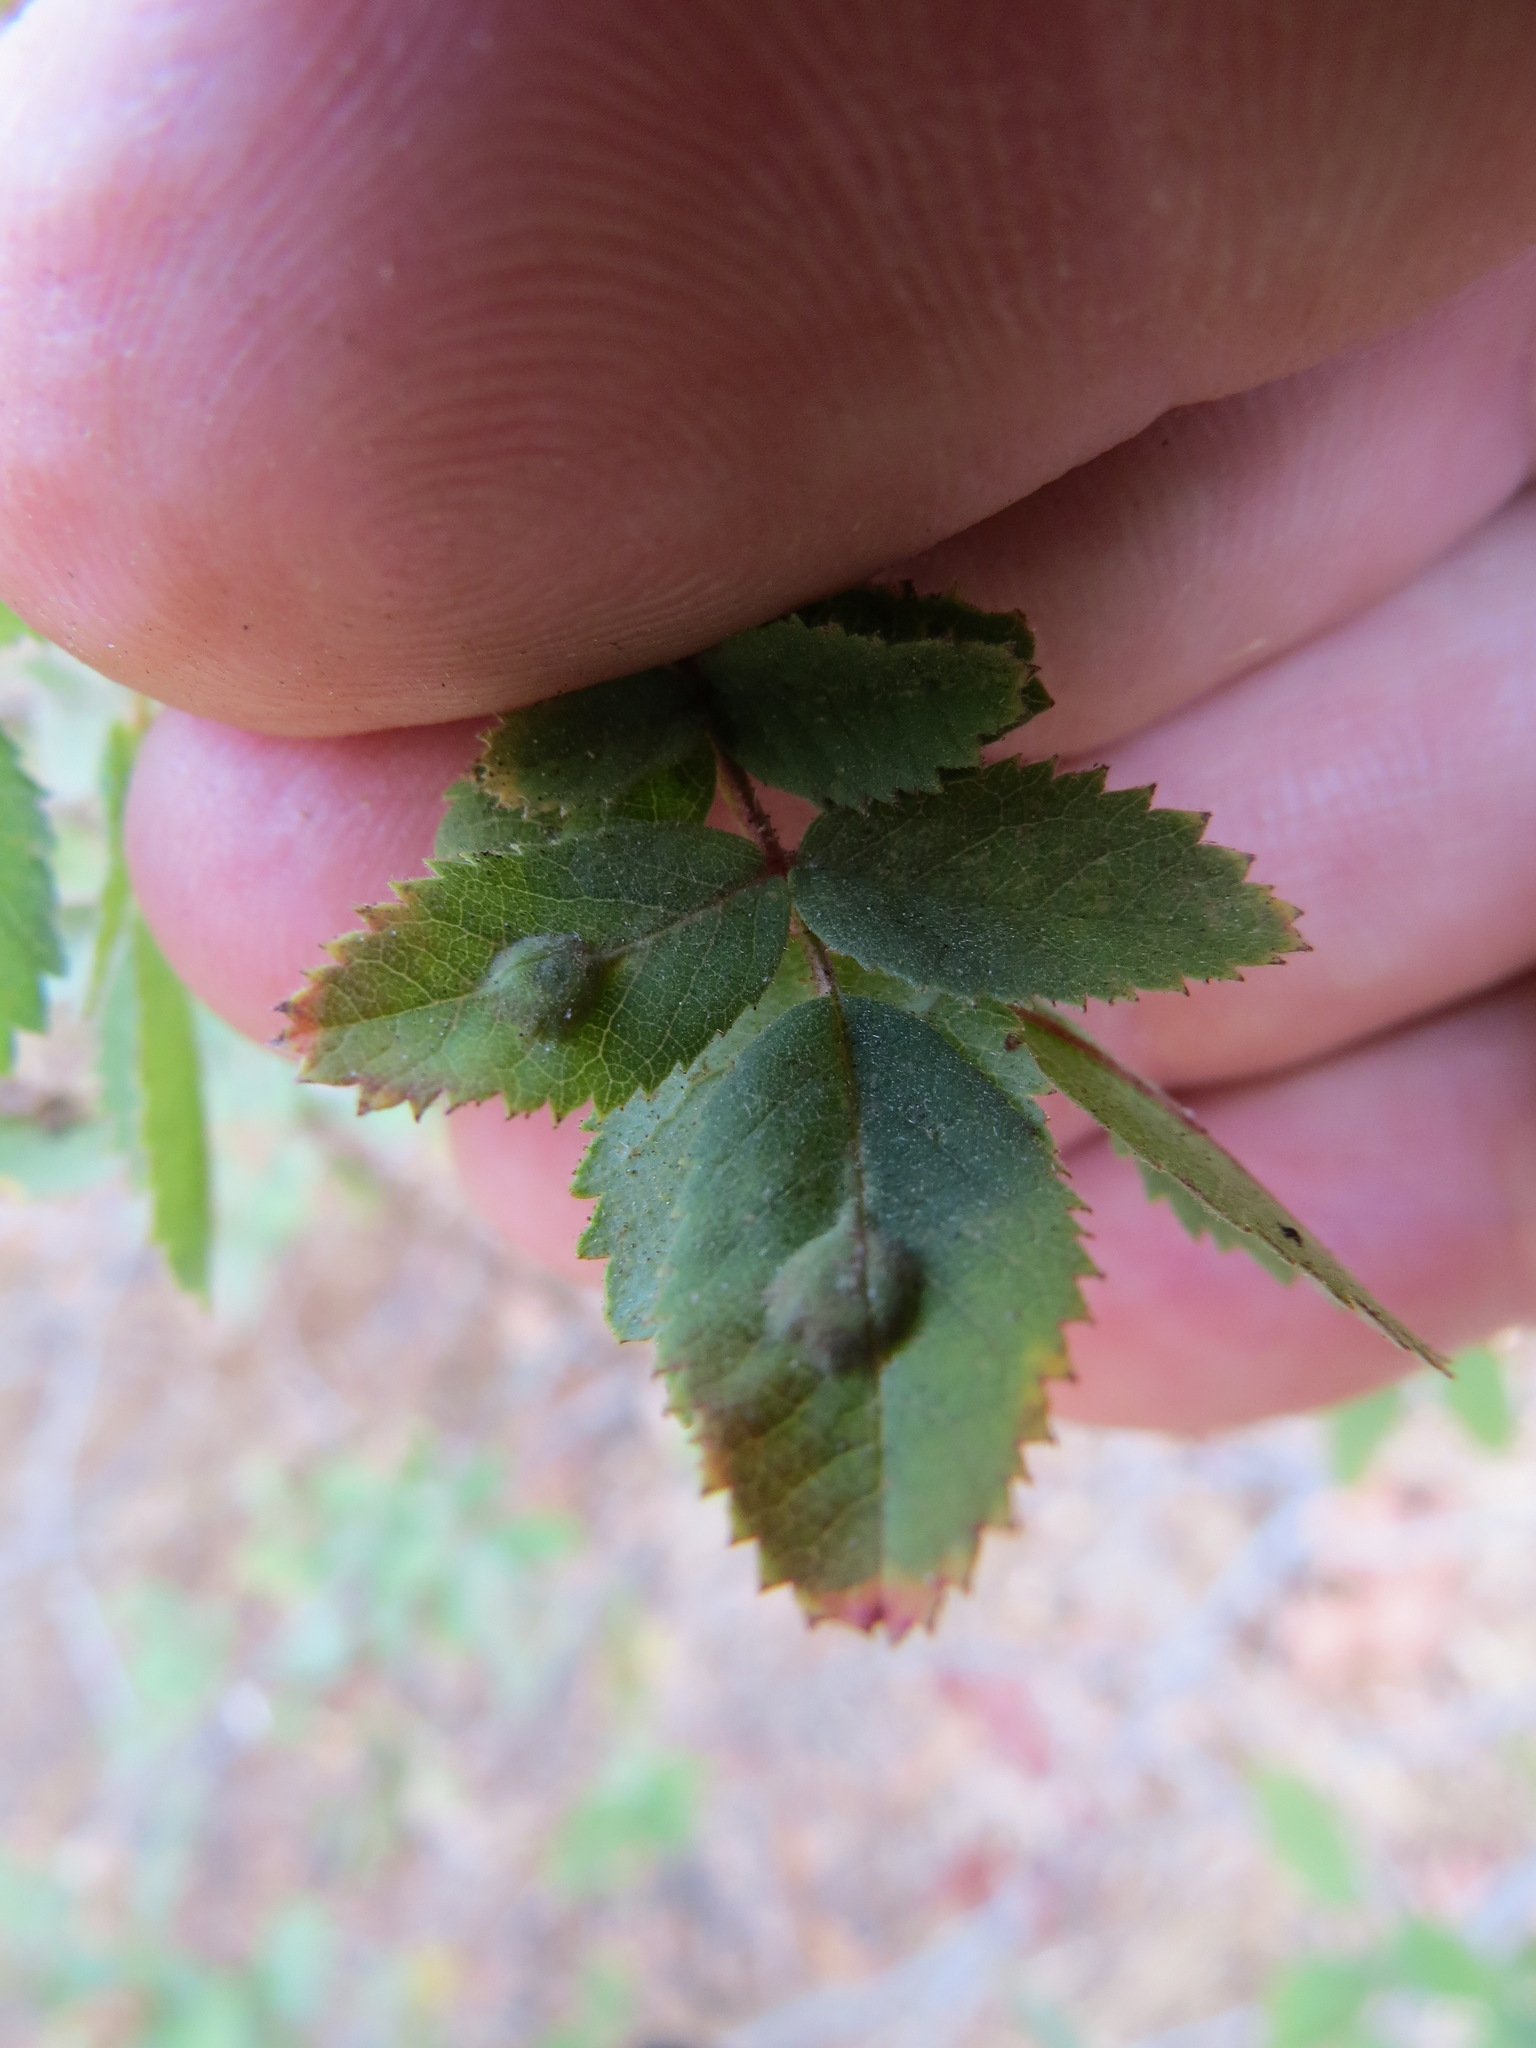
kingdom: Animalia
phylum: Arthropoda
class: Insecta
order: Hymenoptera
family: Cynipidae
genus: Diplolepis
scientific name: Diplolepis rosaefolii
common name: Blister-gall wasp
